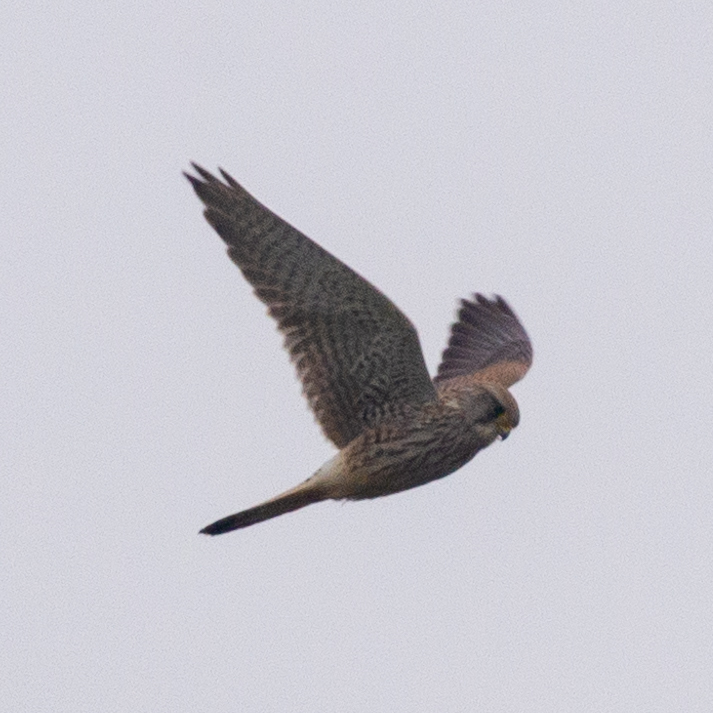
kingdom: Animalia
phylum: Chordata
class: Aves
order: Falconiformes
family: Falconidae
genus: Falco
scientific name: Falco tinnunculus
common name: Common kestrel
